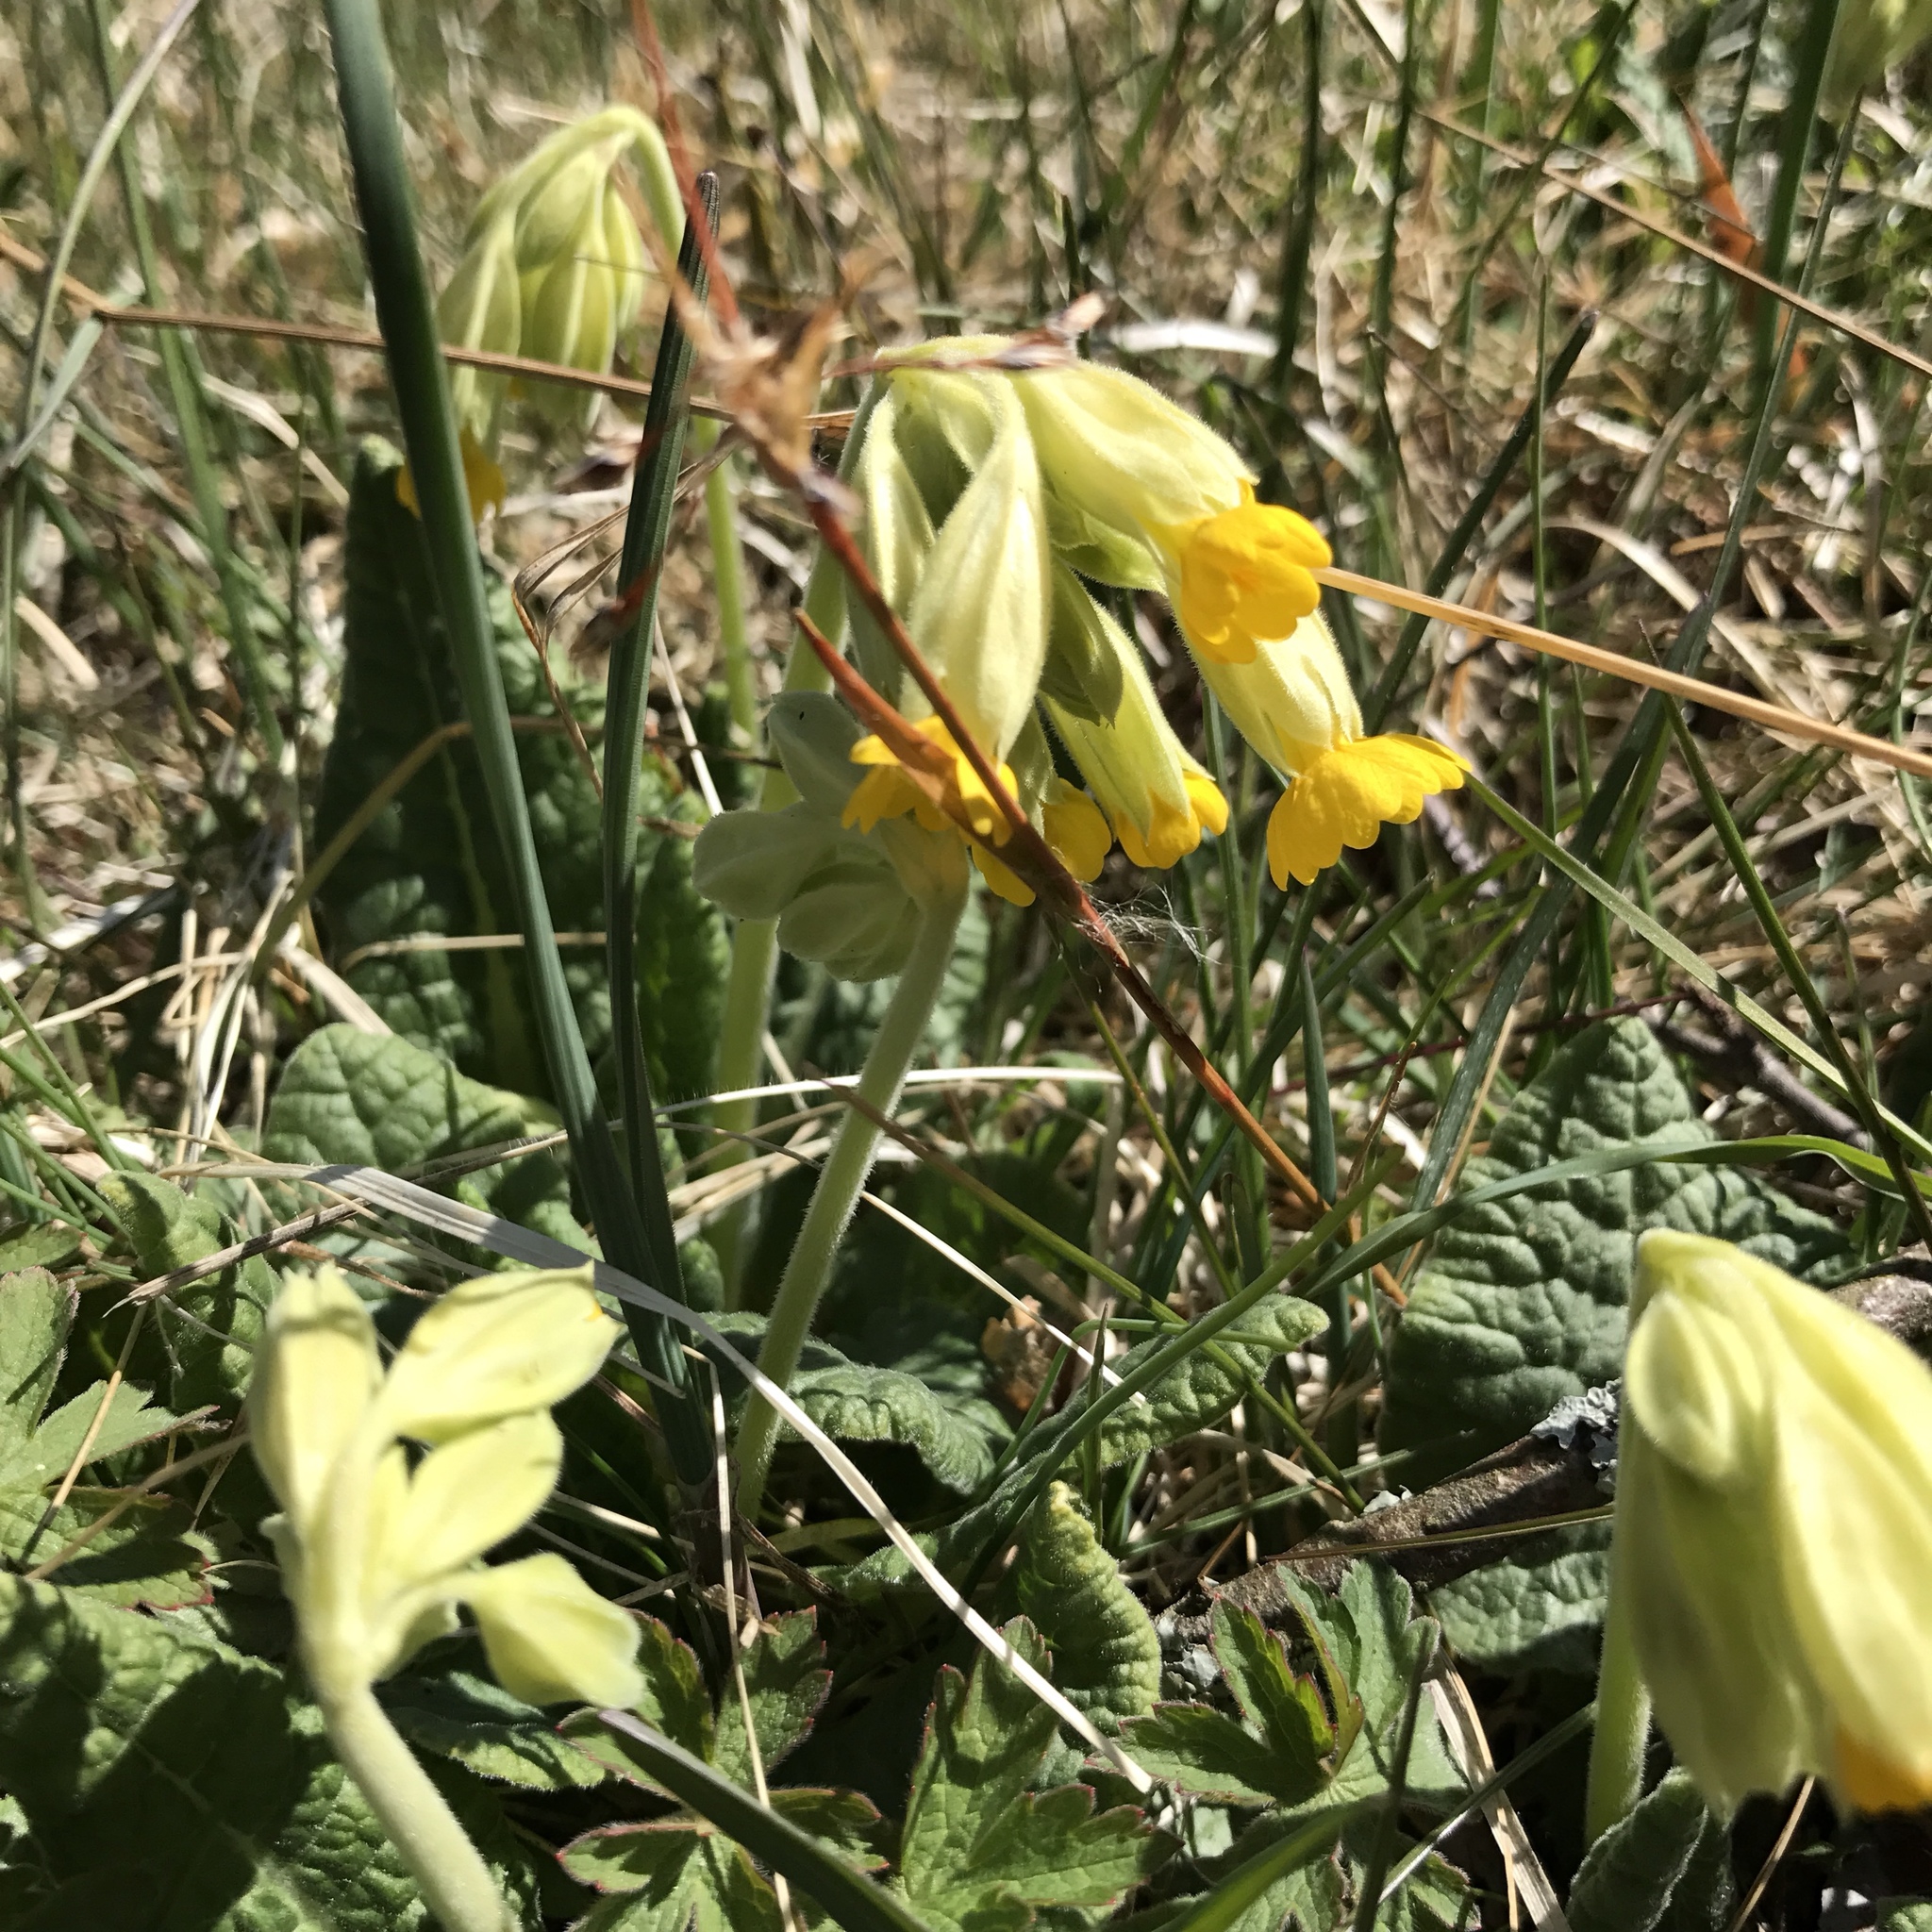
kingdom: Plantae
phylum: Tracheophyta
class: Magnoliopsida
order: Ericales
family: Primulaceae
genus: Primula
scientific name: Primula veris
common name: Cowslip
